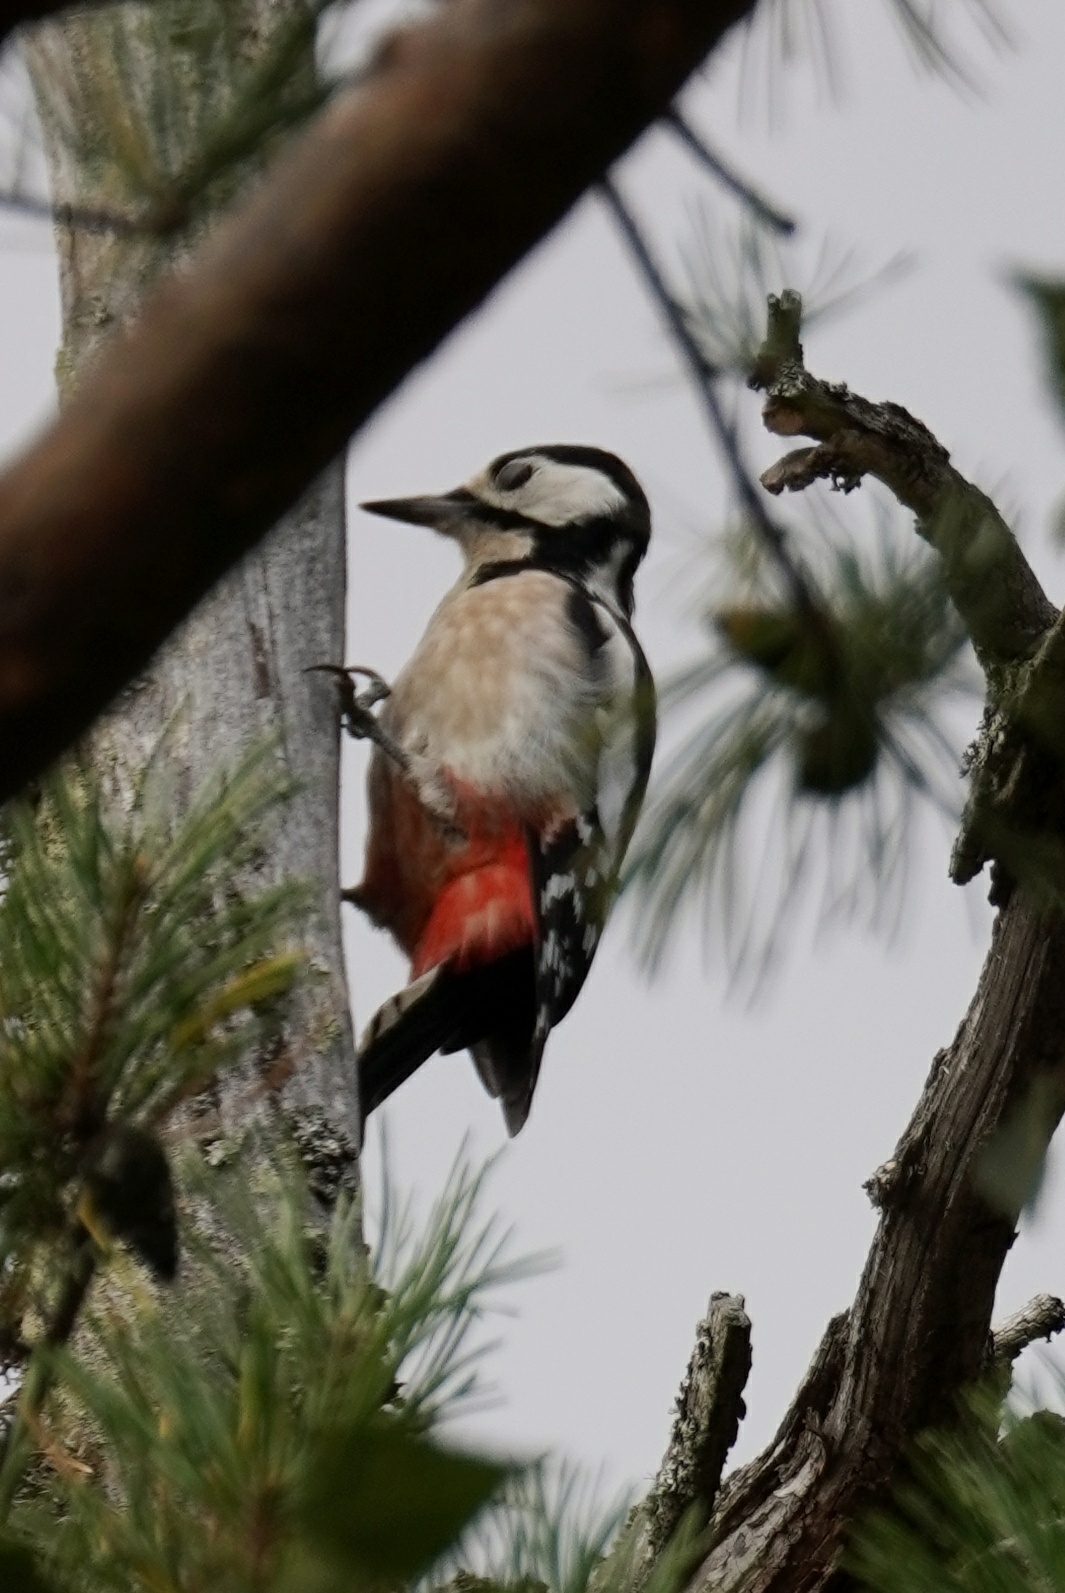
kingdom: Animalia
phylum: Chordata
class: Aves
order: Piciformes
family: Picidae
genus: Dendrocopos
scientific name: Dendrocopos major
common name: Great spotted woodpecker
